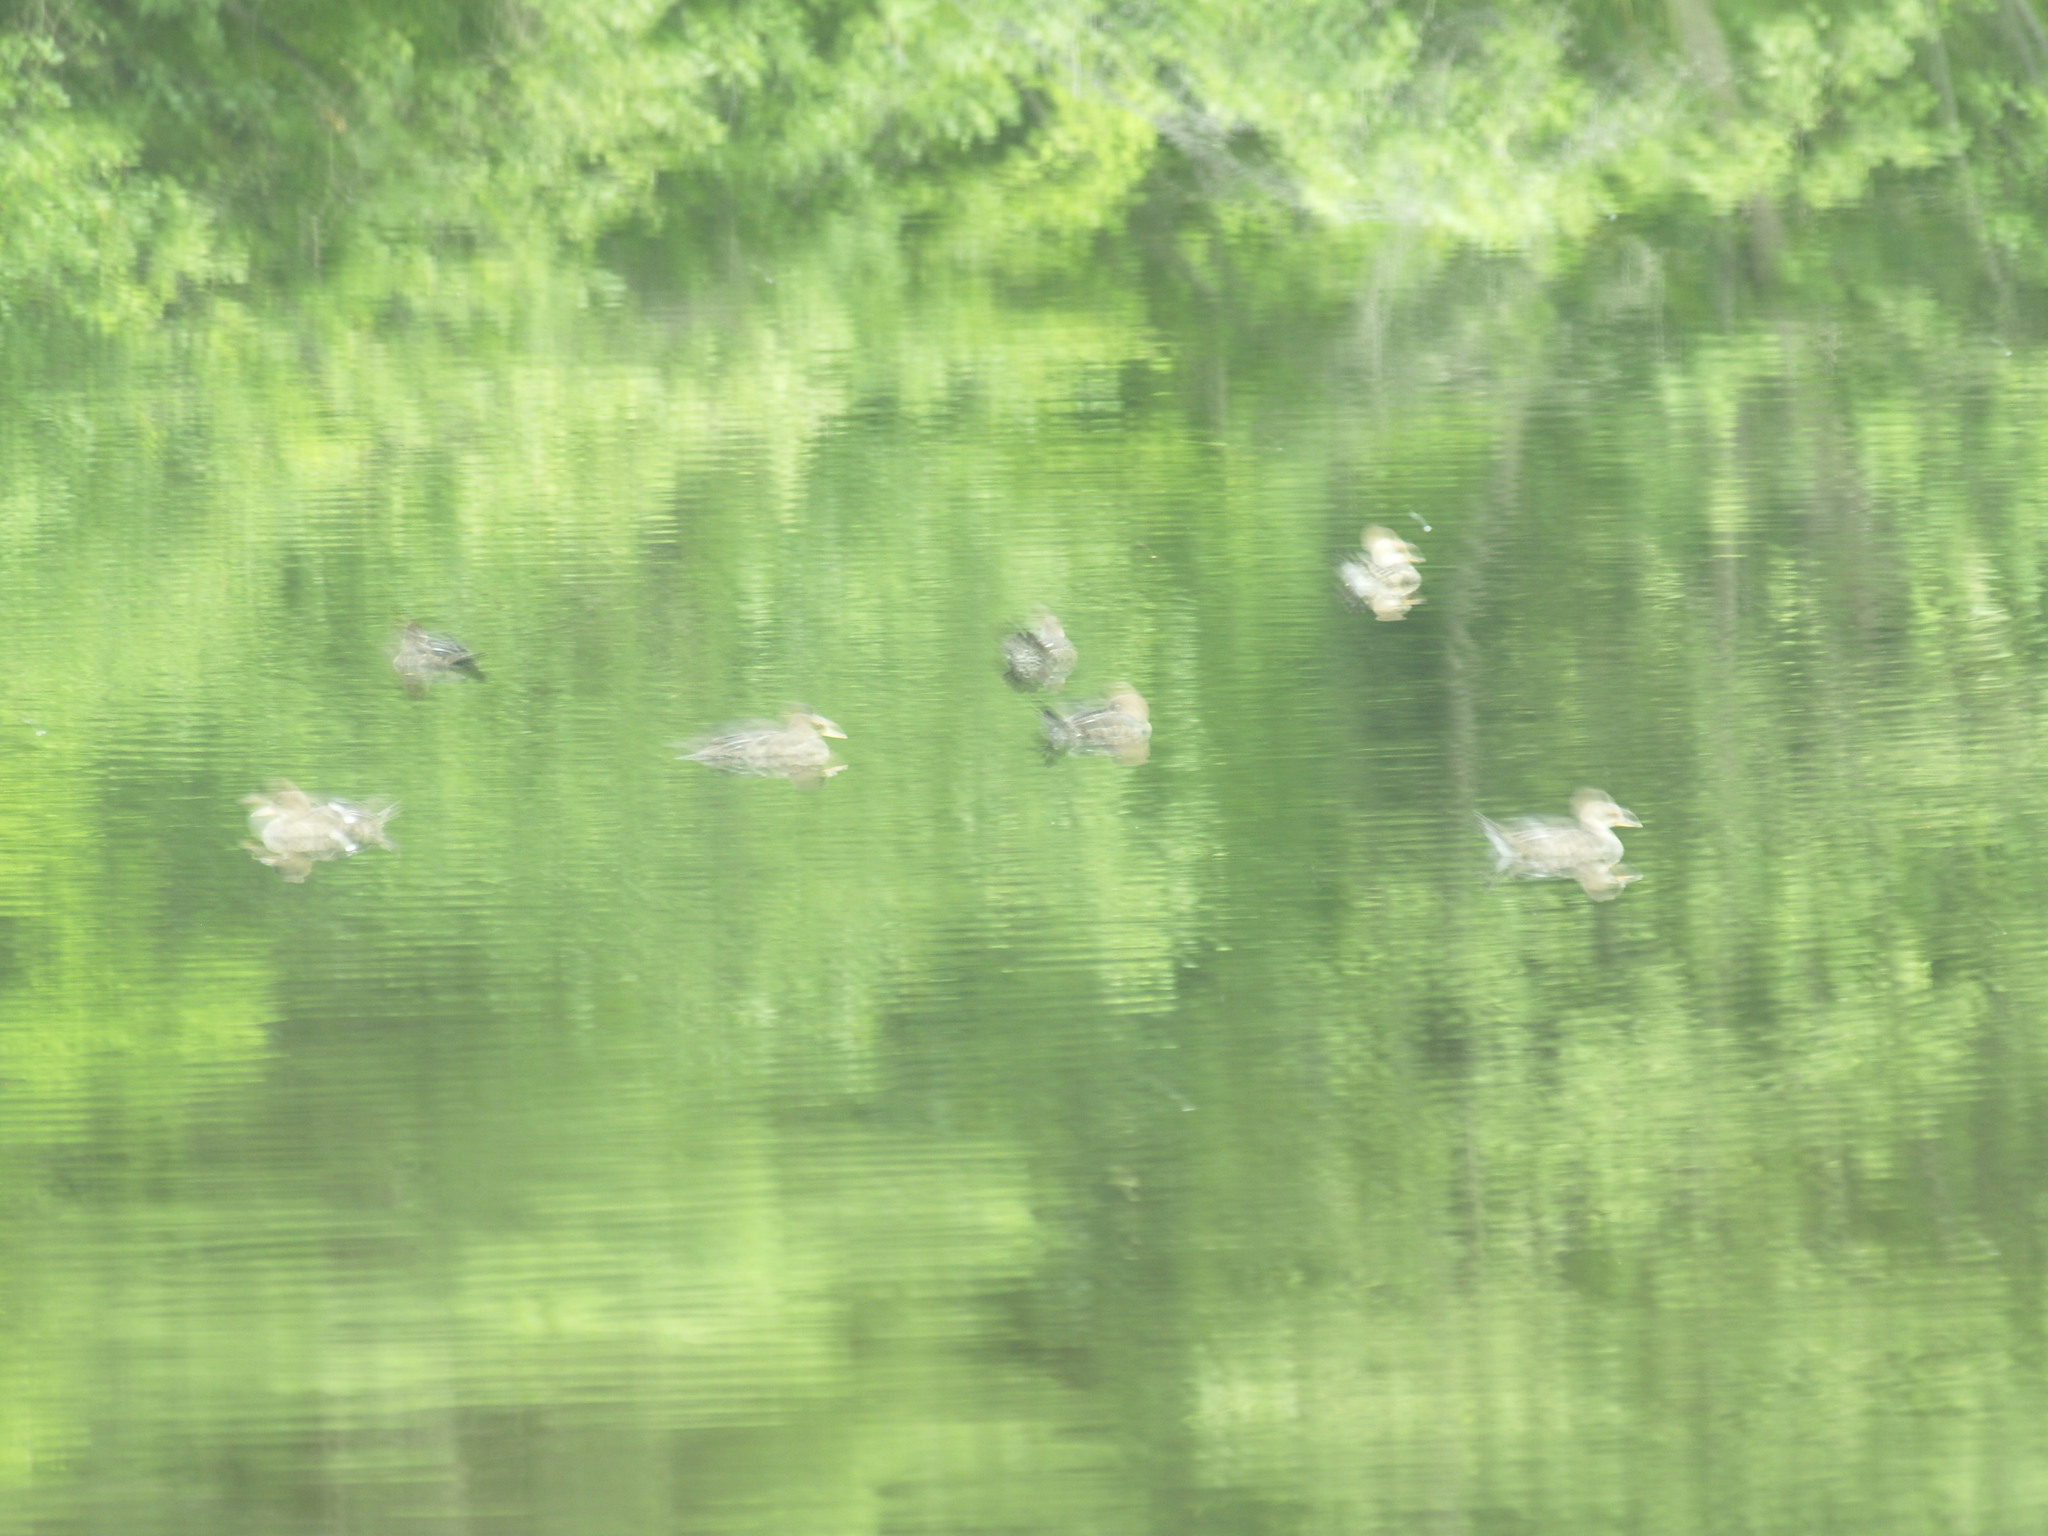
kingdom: Animalia
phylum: Chordata
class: Aves
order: Anseriformes
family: Anatidae
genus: Lophodytes
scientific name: Lophodytes cucullatus
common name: Hooded merganser
